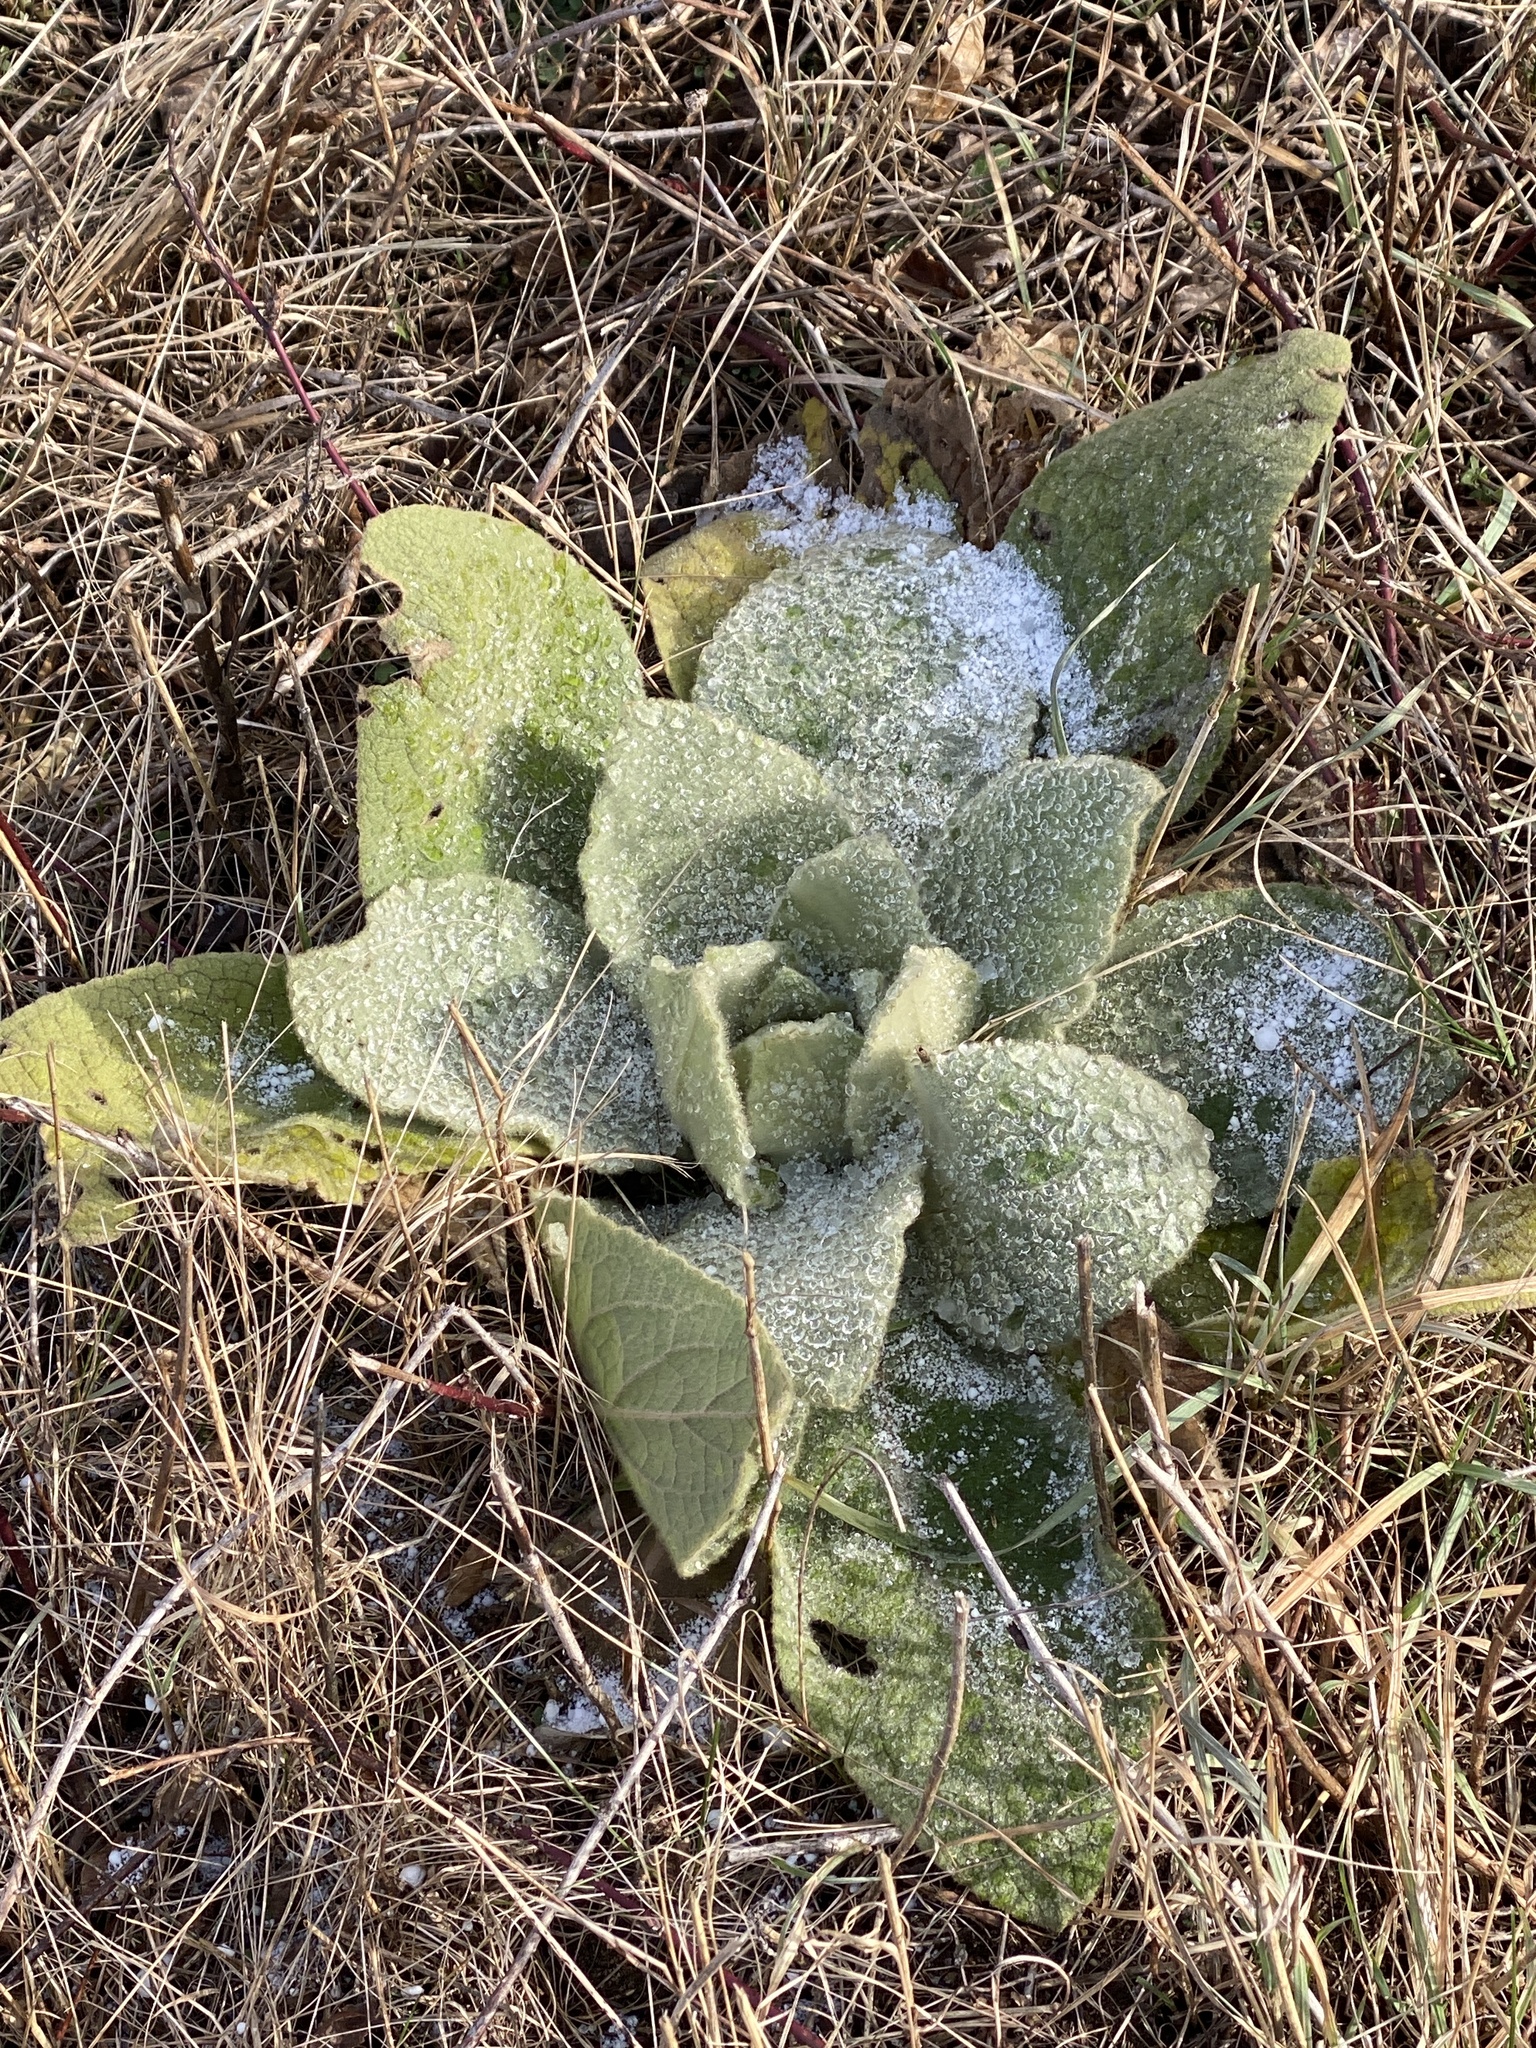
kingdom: Plantae
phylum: Tracheophyta
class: Magnoliopsida
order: Lamiales
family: Scrophulariaceae
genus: Verbascum
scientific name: Verbascum thapsus
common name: Common mullein
